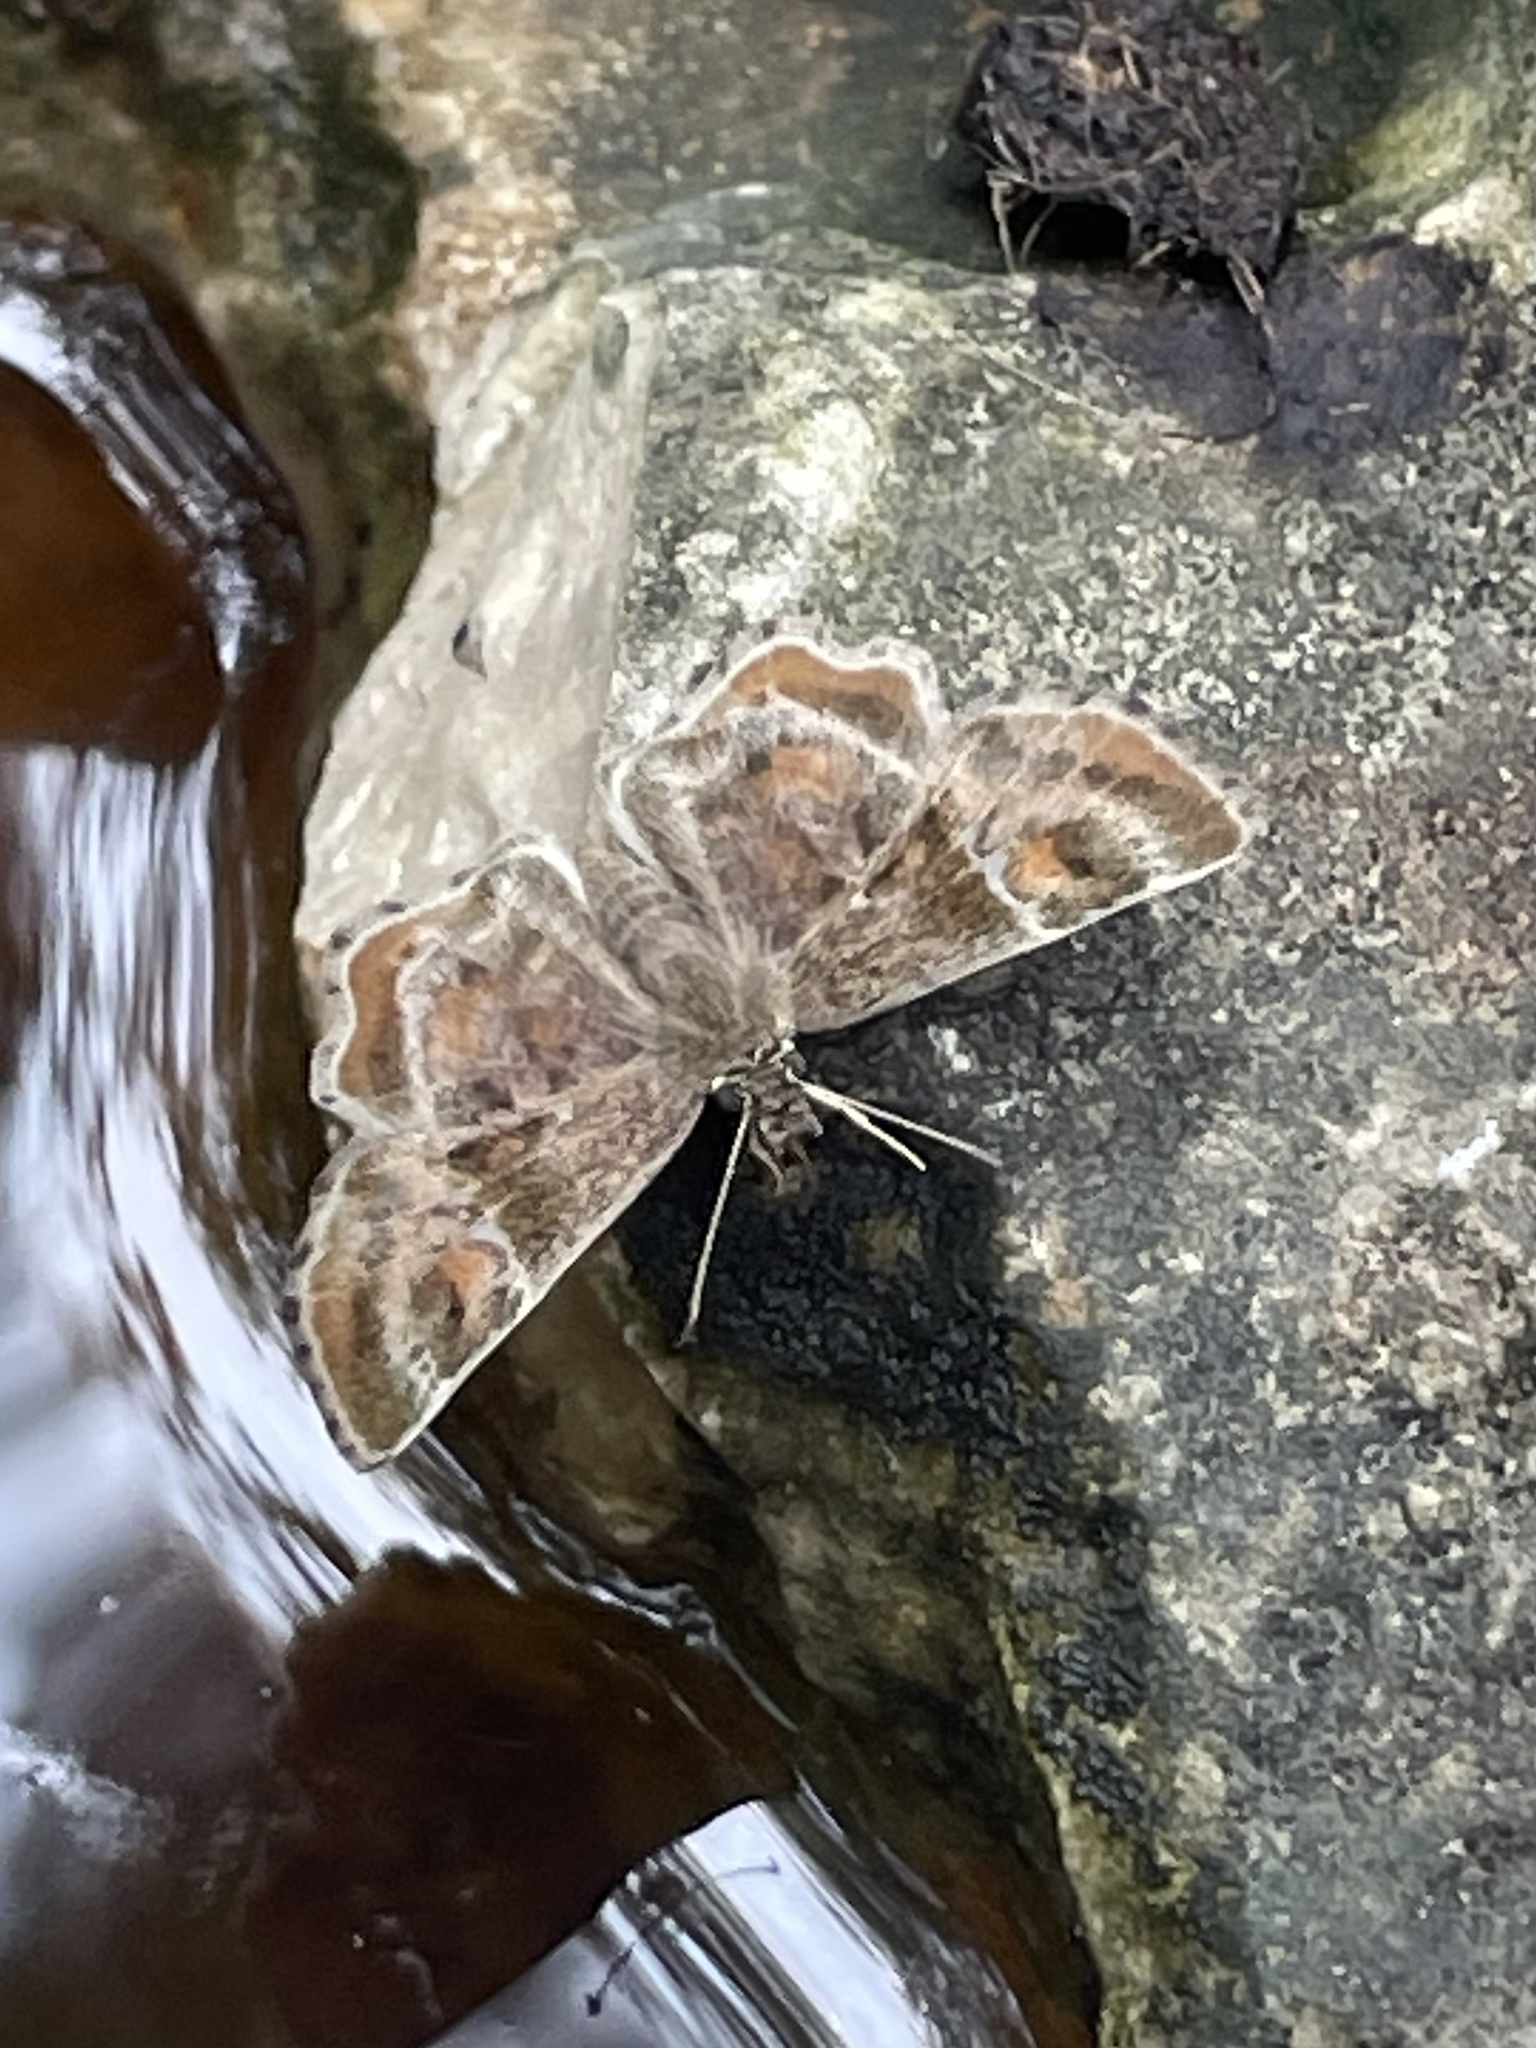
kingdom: Animalia
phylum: Arthropoda
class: Insecta
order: Lepidoptera
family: Hesperiidae
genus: Systasea
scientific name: Systasea pulverulenta
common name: Texas powdered skipper
